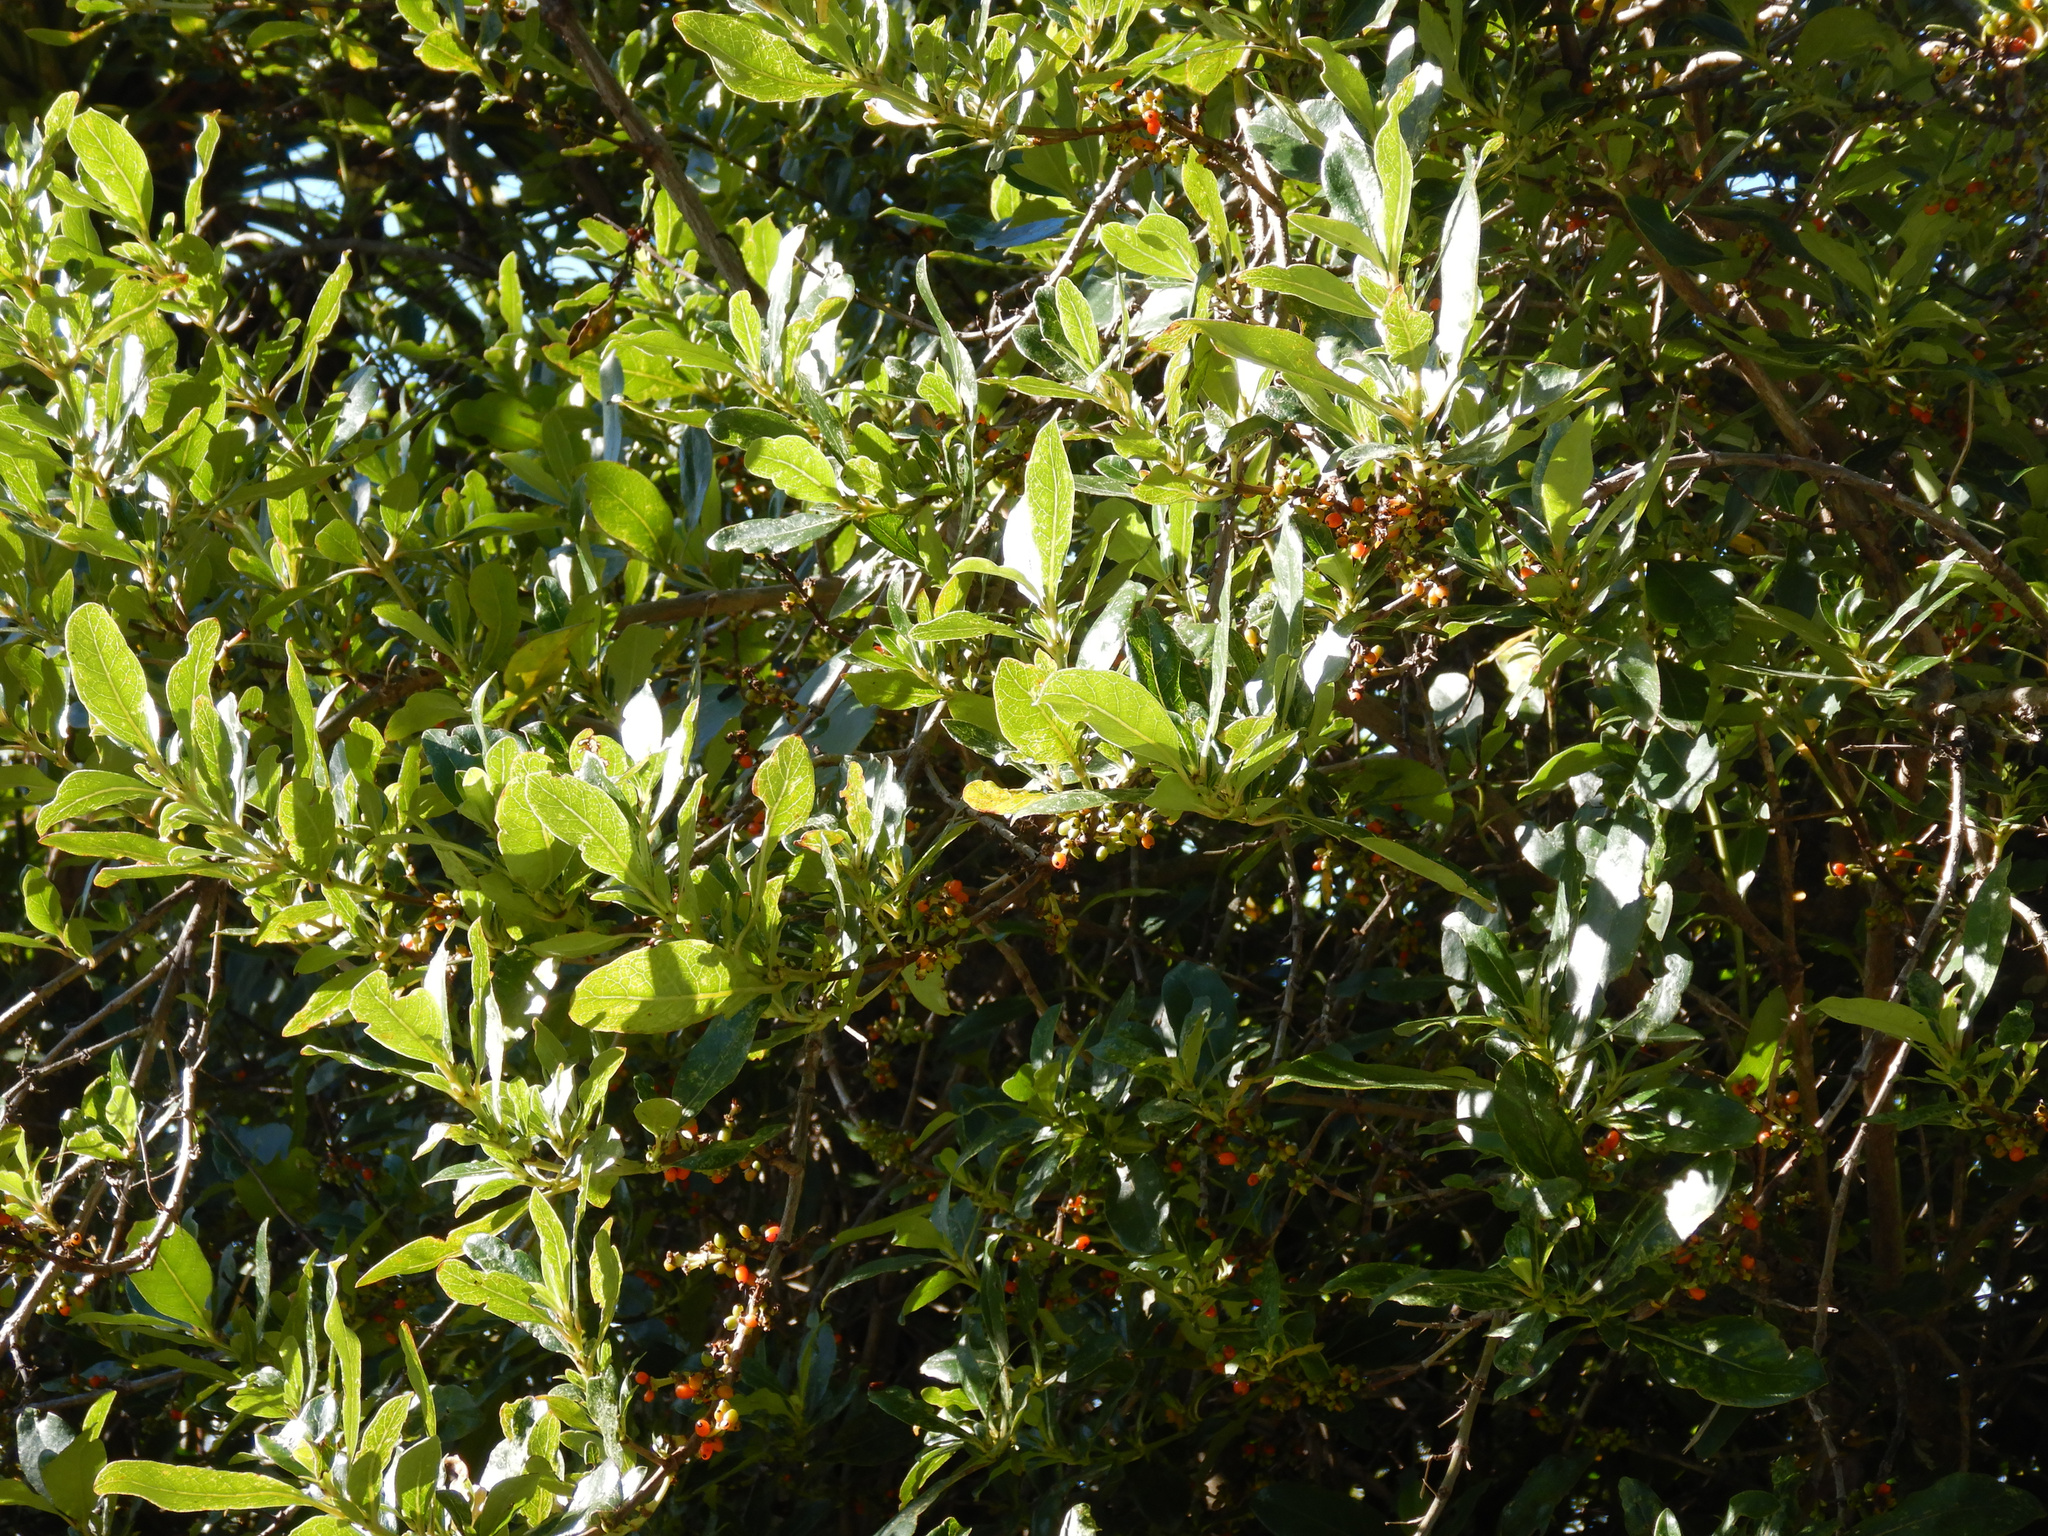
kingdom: Plantae
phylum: Tracheophyta
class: Magnoliopsida
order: Gentianales
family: Rubiaceae
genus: Coprosma
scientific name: Coprosma robusta
